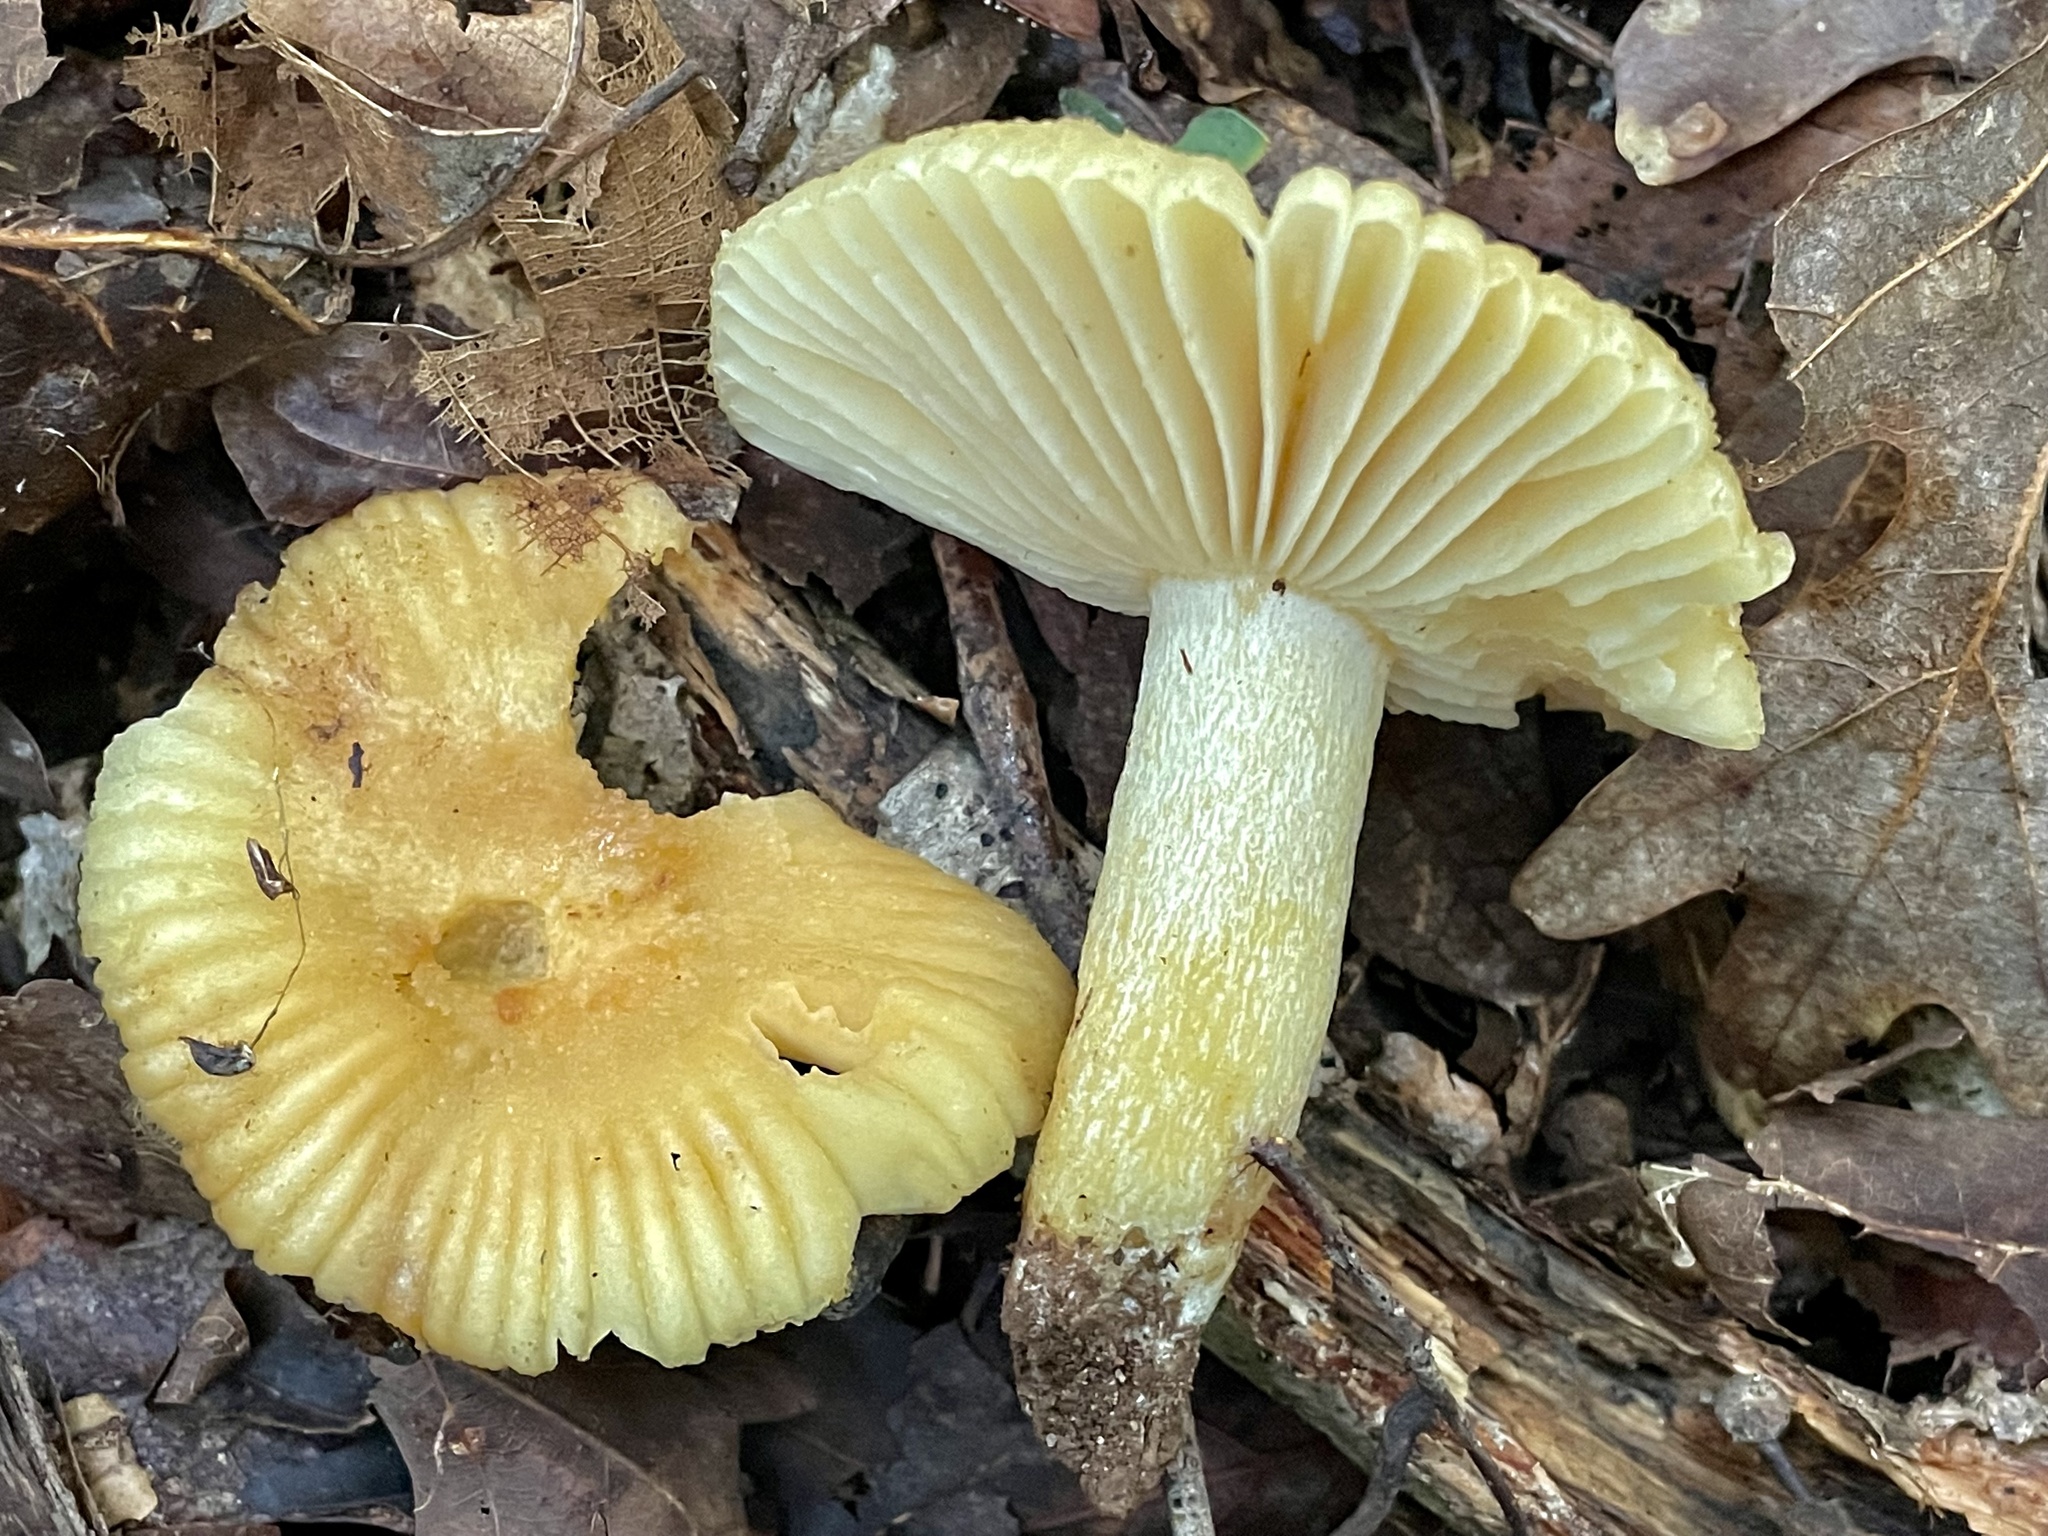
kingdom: Fungi
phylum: Basidiomycota
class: Agaricomycetes
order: Russulales
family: Russulaceae
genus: Russula
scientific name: Russula earlei
